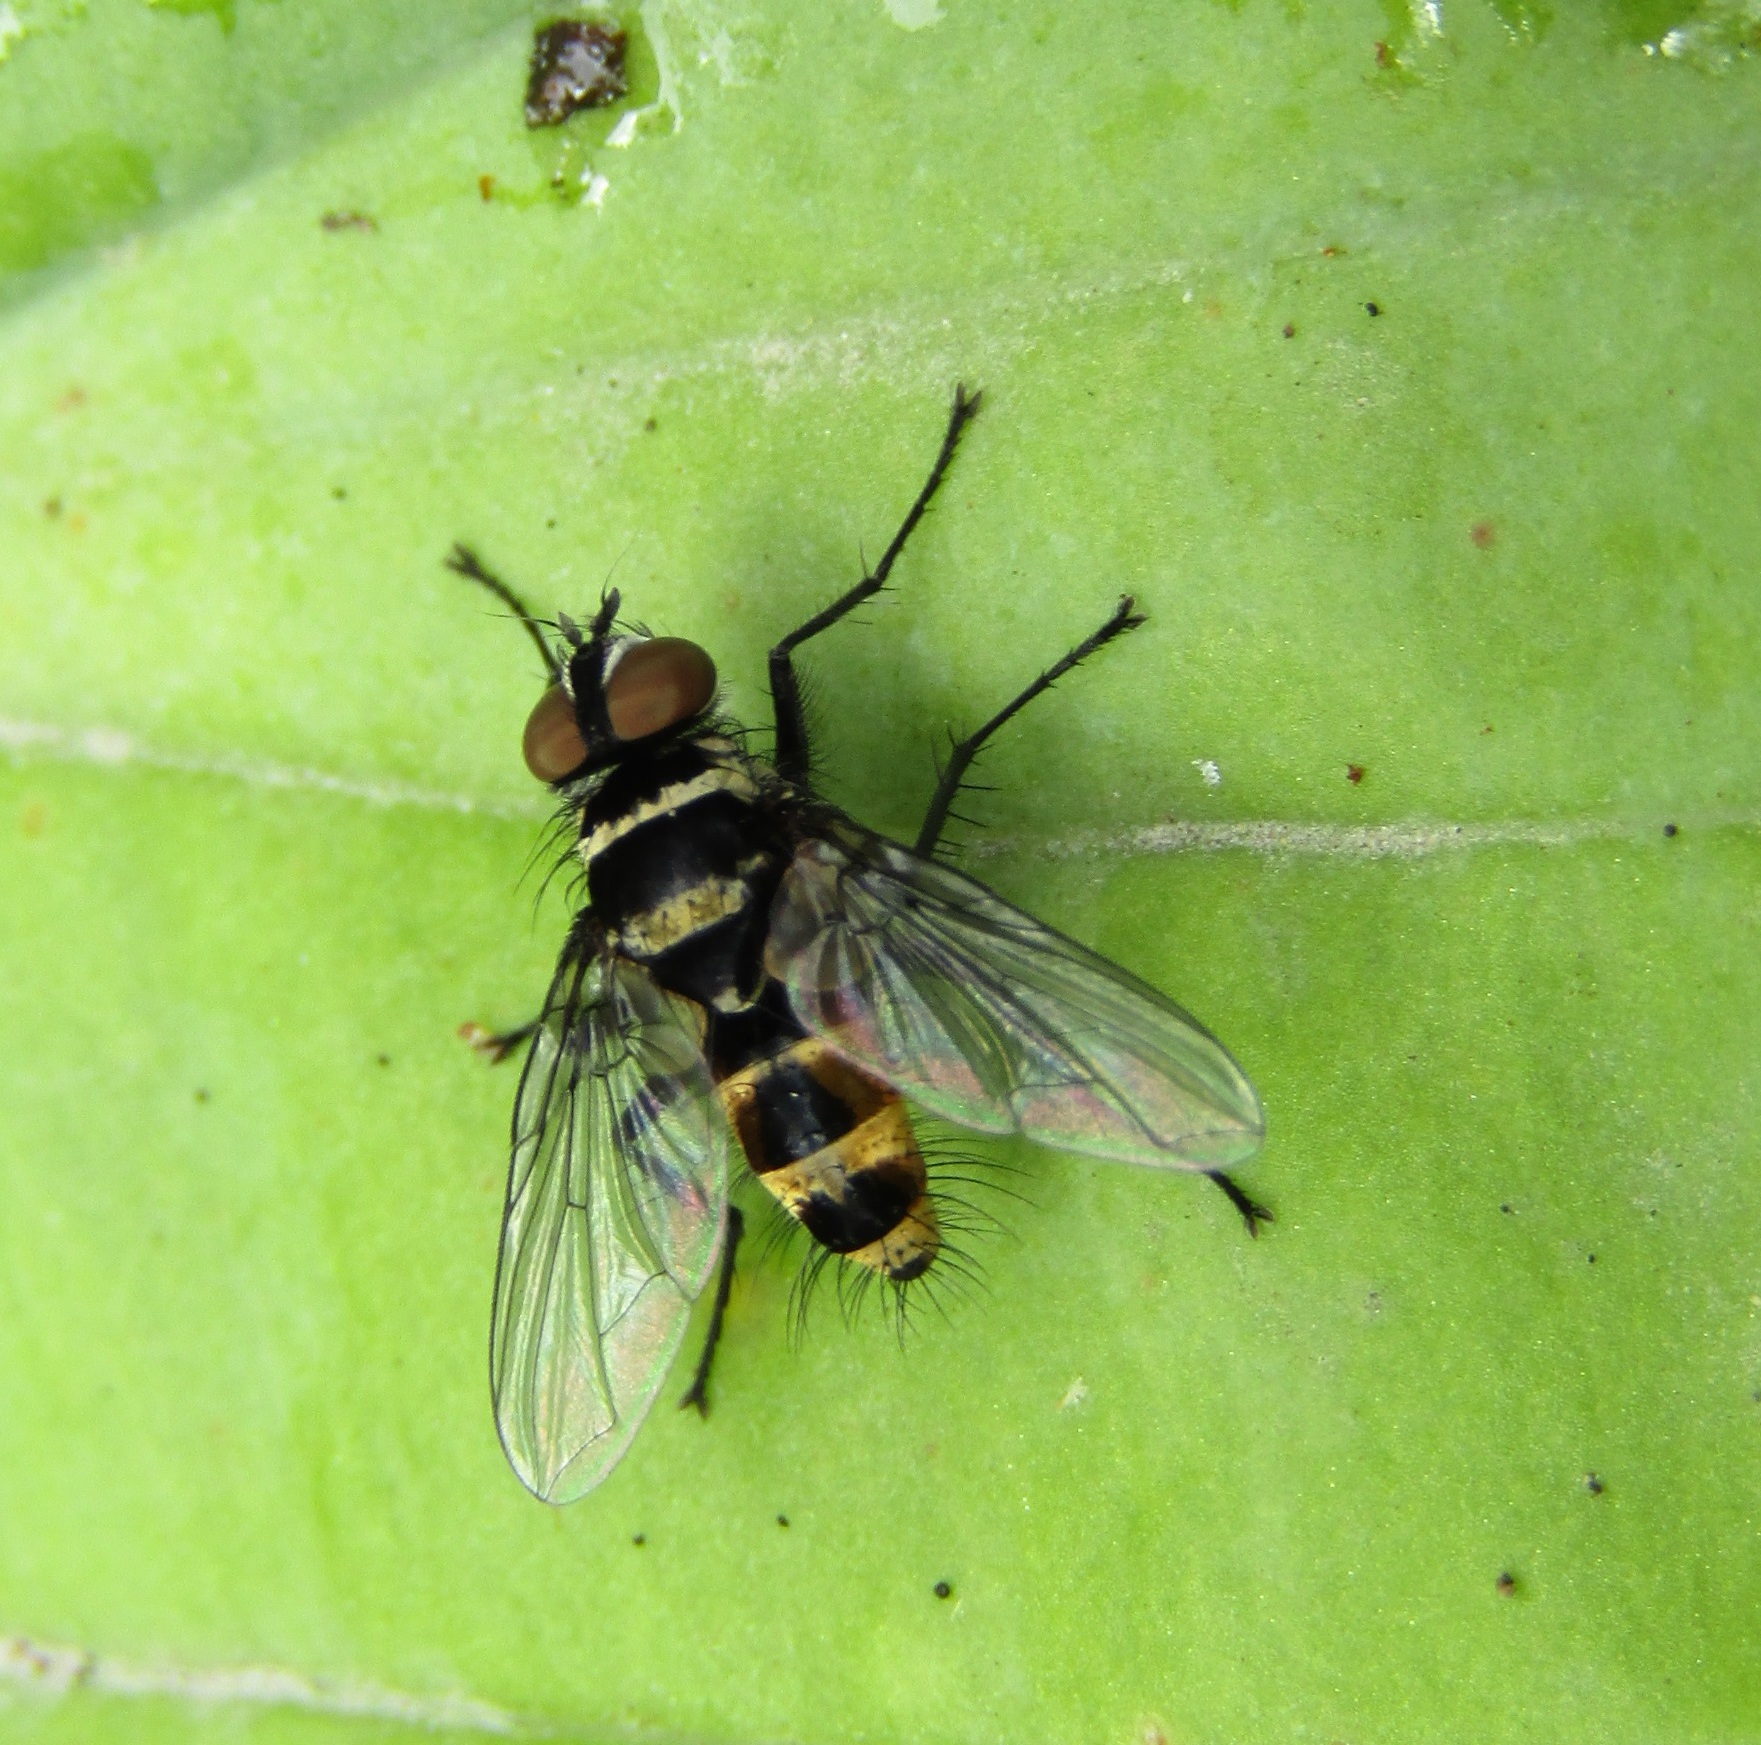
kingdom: Animalia
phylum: Arthropoda
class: Insecta
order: Diptera
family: Tachinidae
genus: Trigonospila
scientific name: Trigonospila brevifacies
